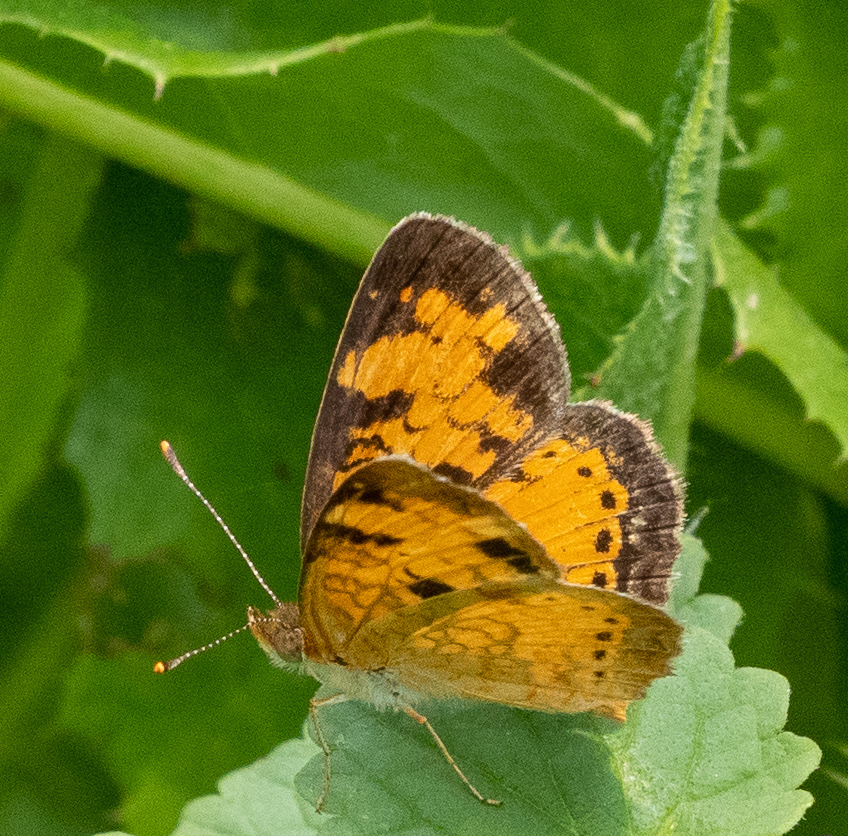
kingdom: Animalia
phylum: Arthropoda
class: Insecta
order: Lepidoptera
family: Nymphalidae
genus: Phyciodes
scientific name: Phyciodes tharos
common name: Pearl crescent
